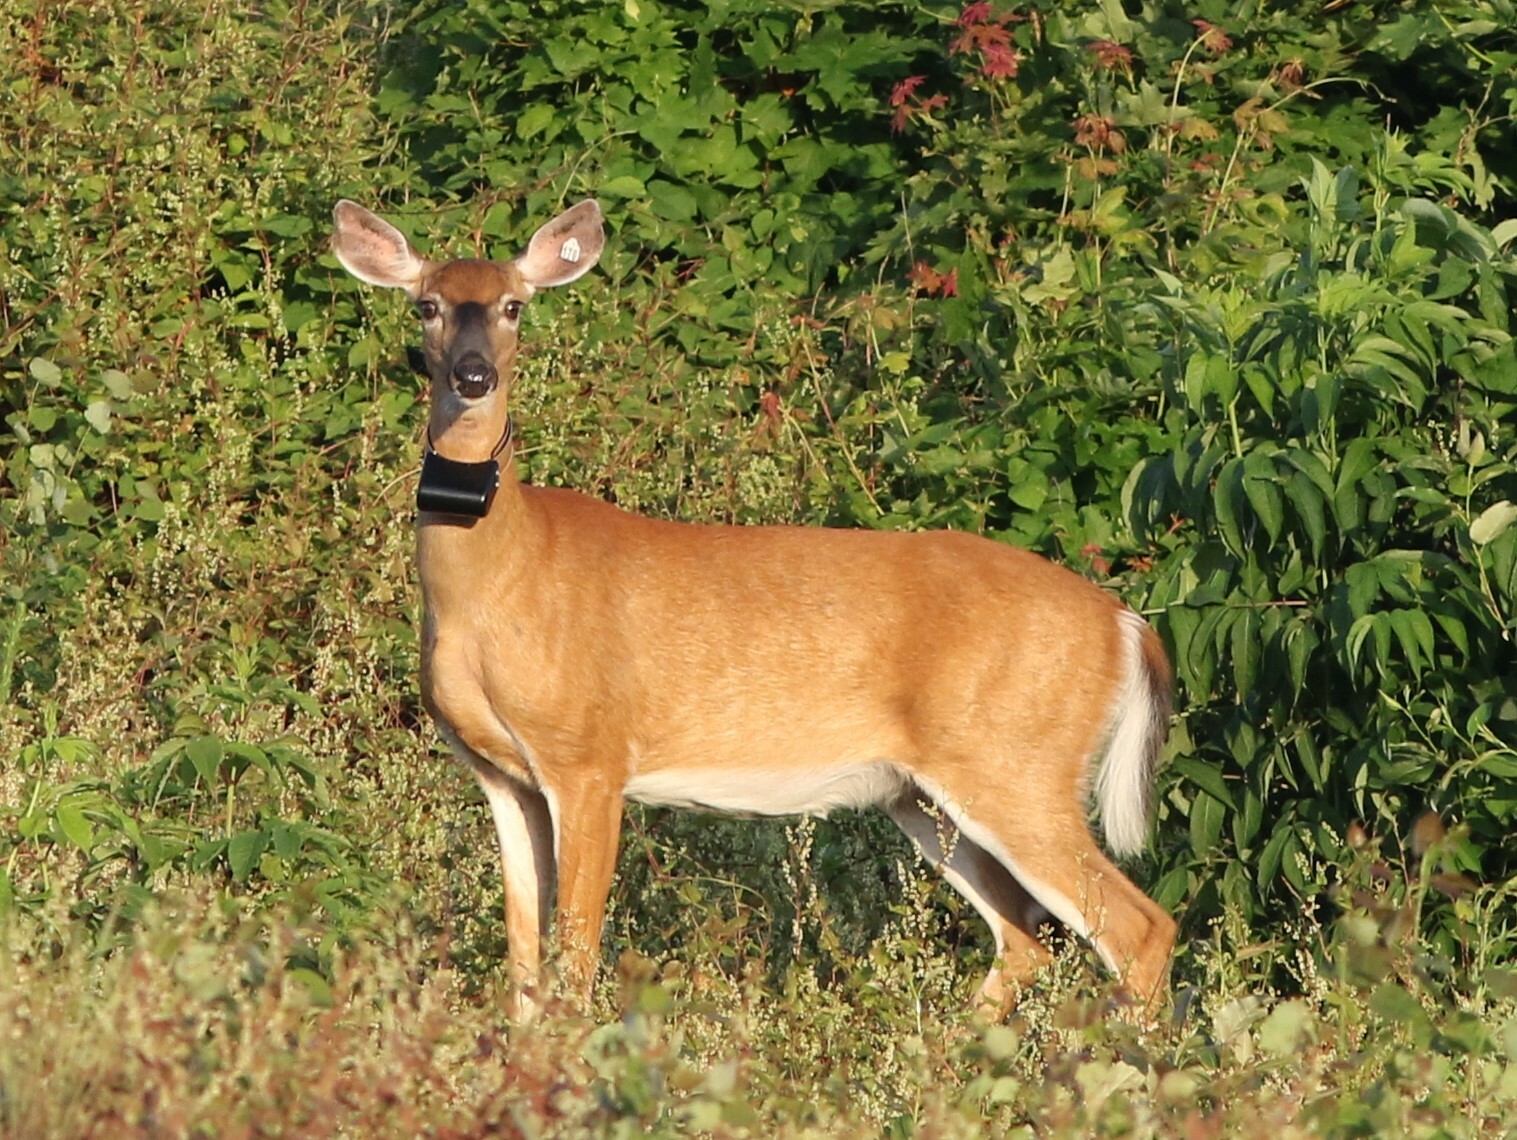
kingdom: Animalia
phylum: Chordata
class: Mammalia
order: Artiodactyla
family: Cervidae
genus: Odocoileus
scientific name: Odocoileus virginianus
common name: White-tailed deer
